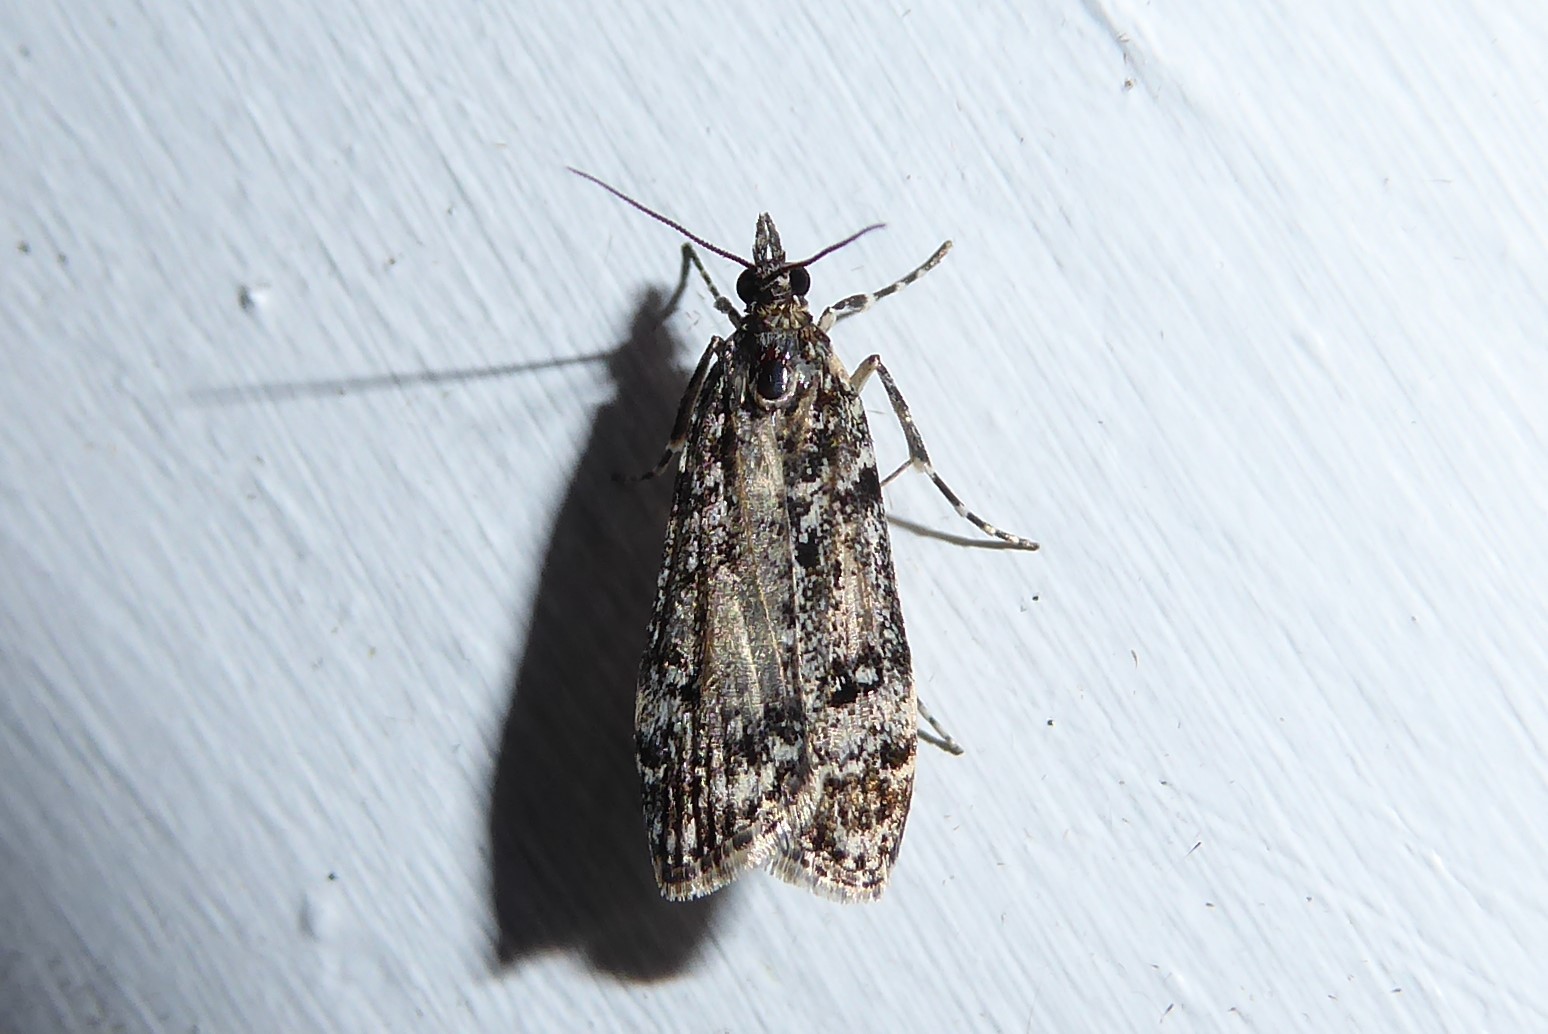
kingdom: Animalia
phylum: Arthropoda
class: Insecta
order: Lepidoptera
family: Crambidae
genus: Eudonia
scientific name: Eudonia philerga
